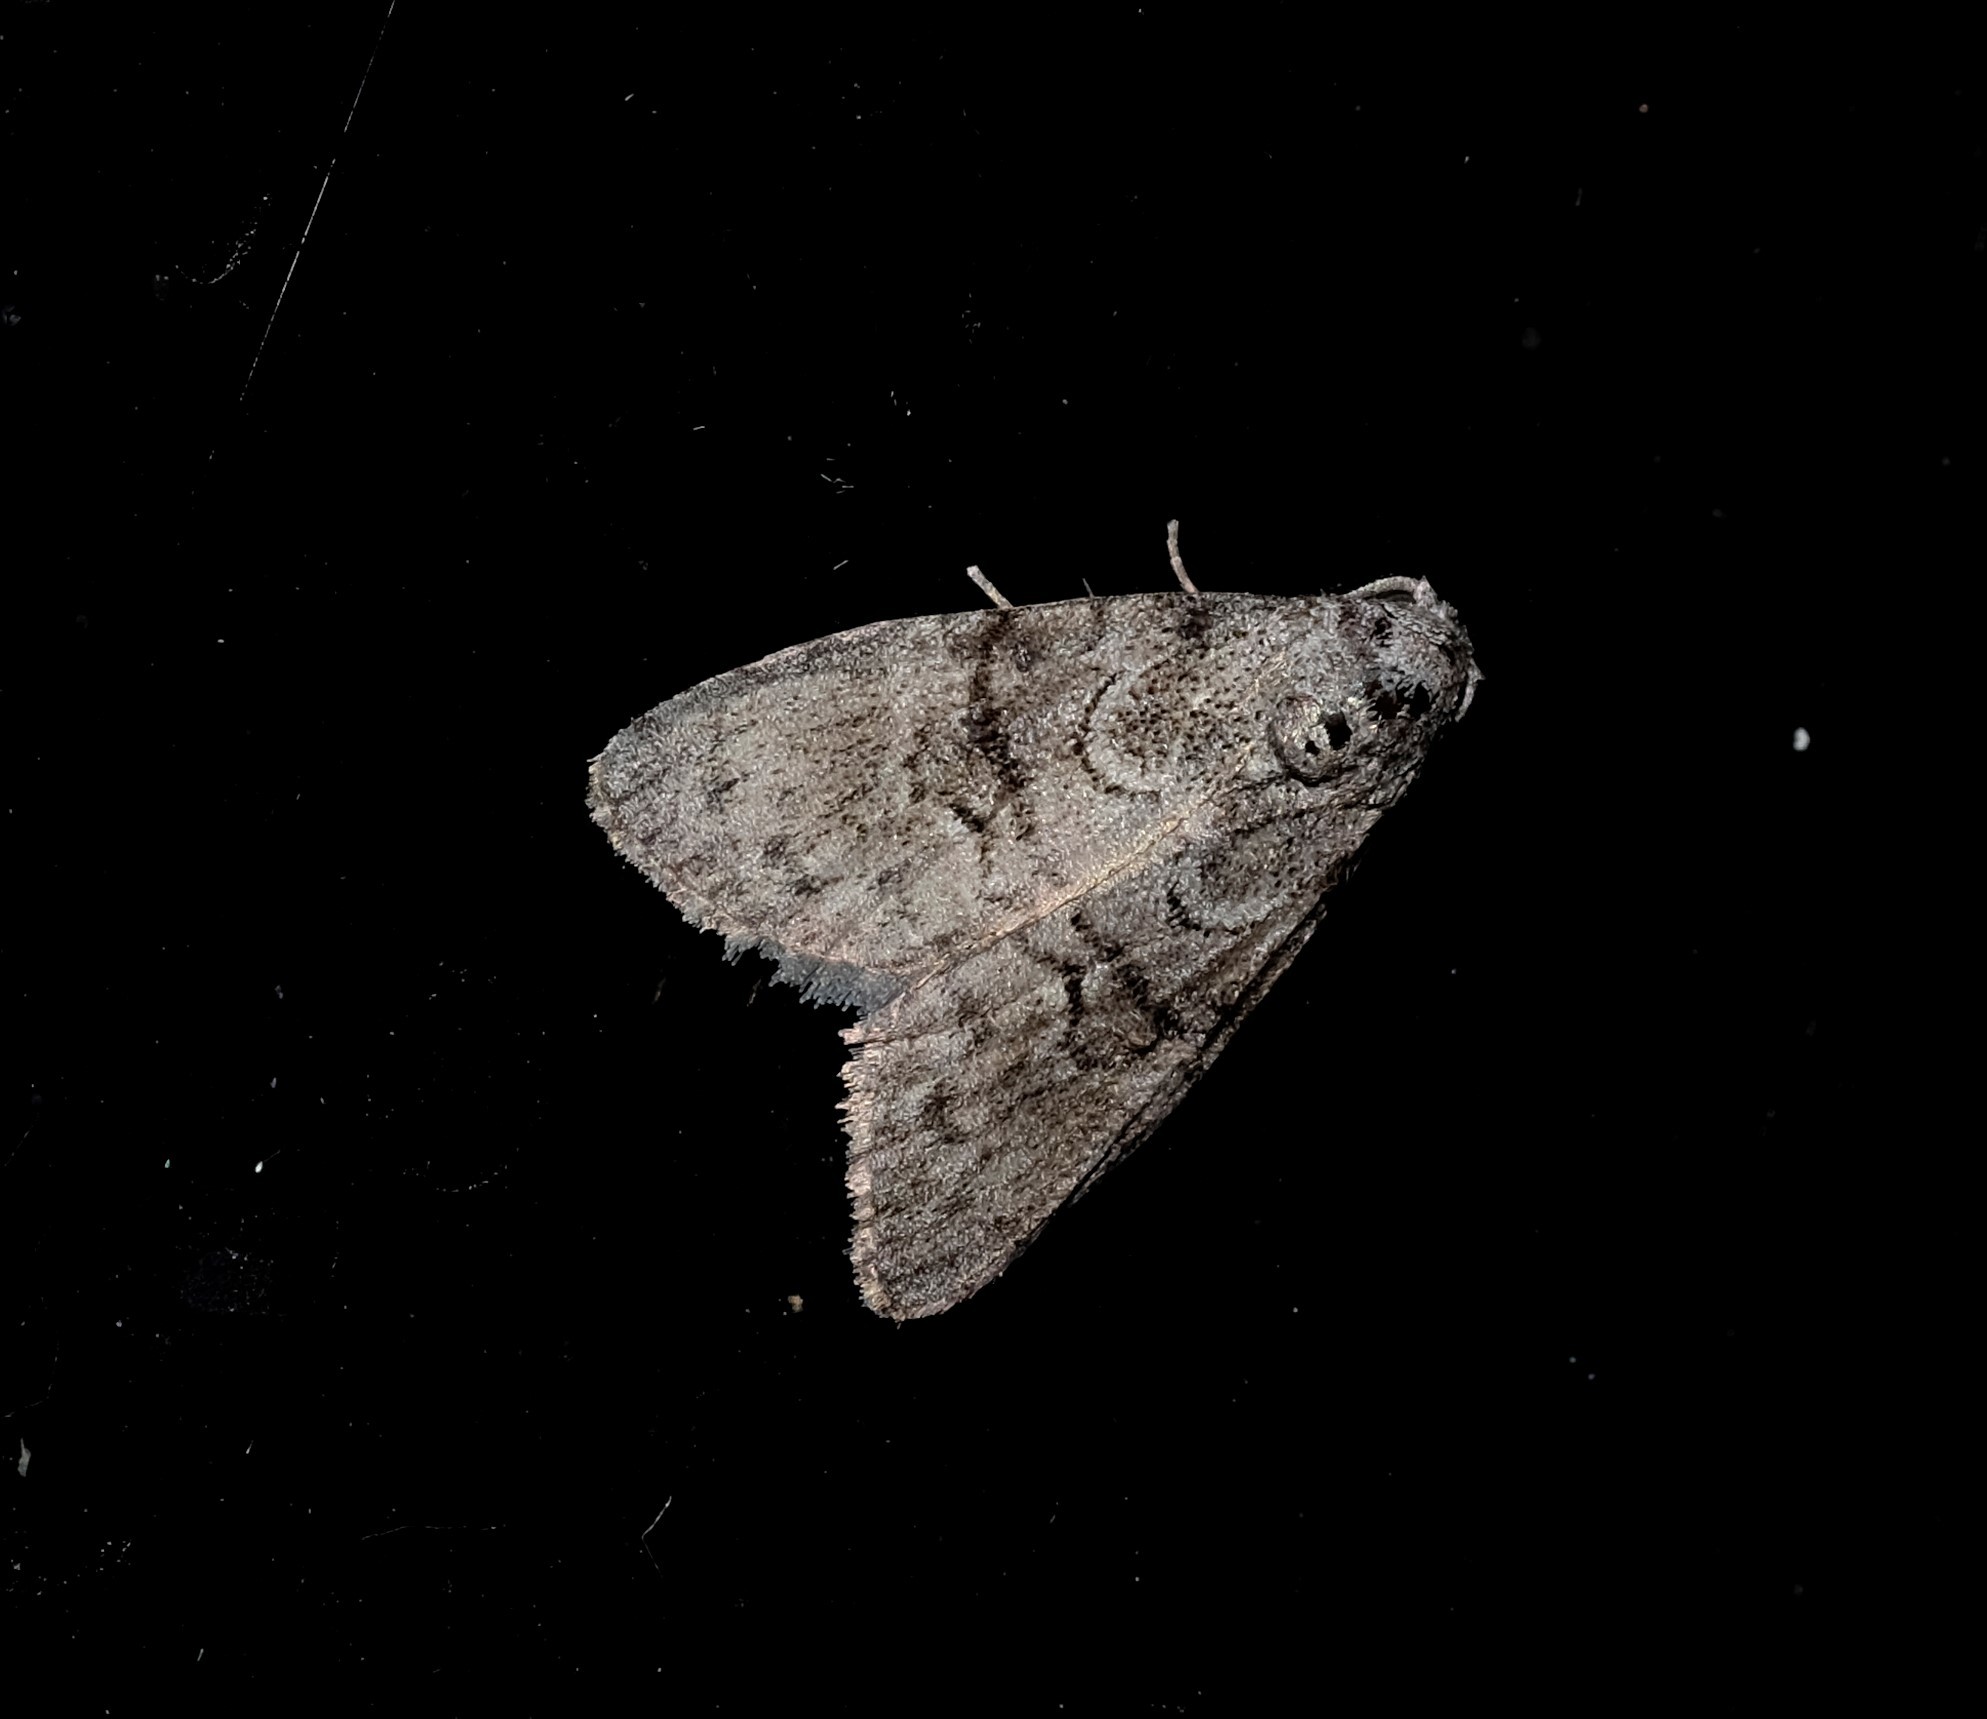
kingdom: Animalia
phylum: Arthropoda
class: Insecta
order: Lepidoptera
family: Nolidae
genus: Uraba
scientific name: Uraba lugens
